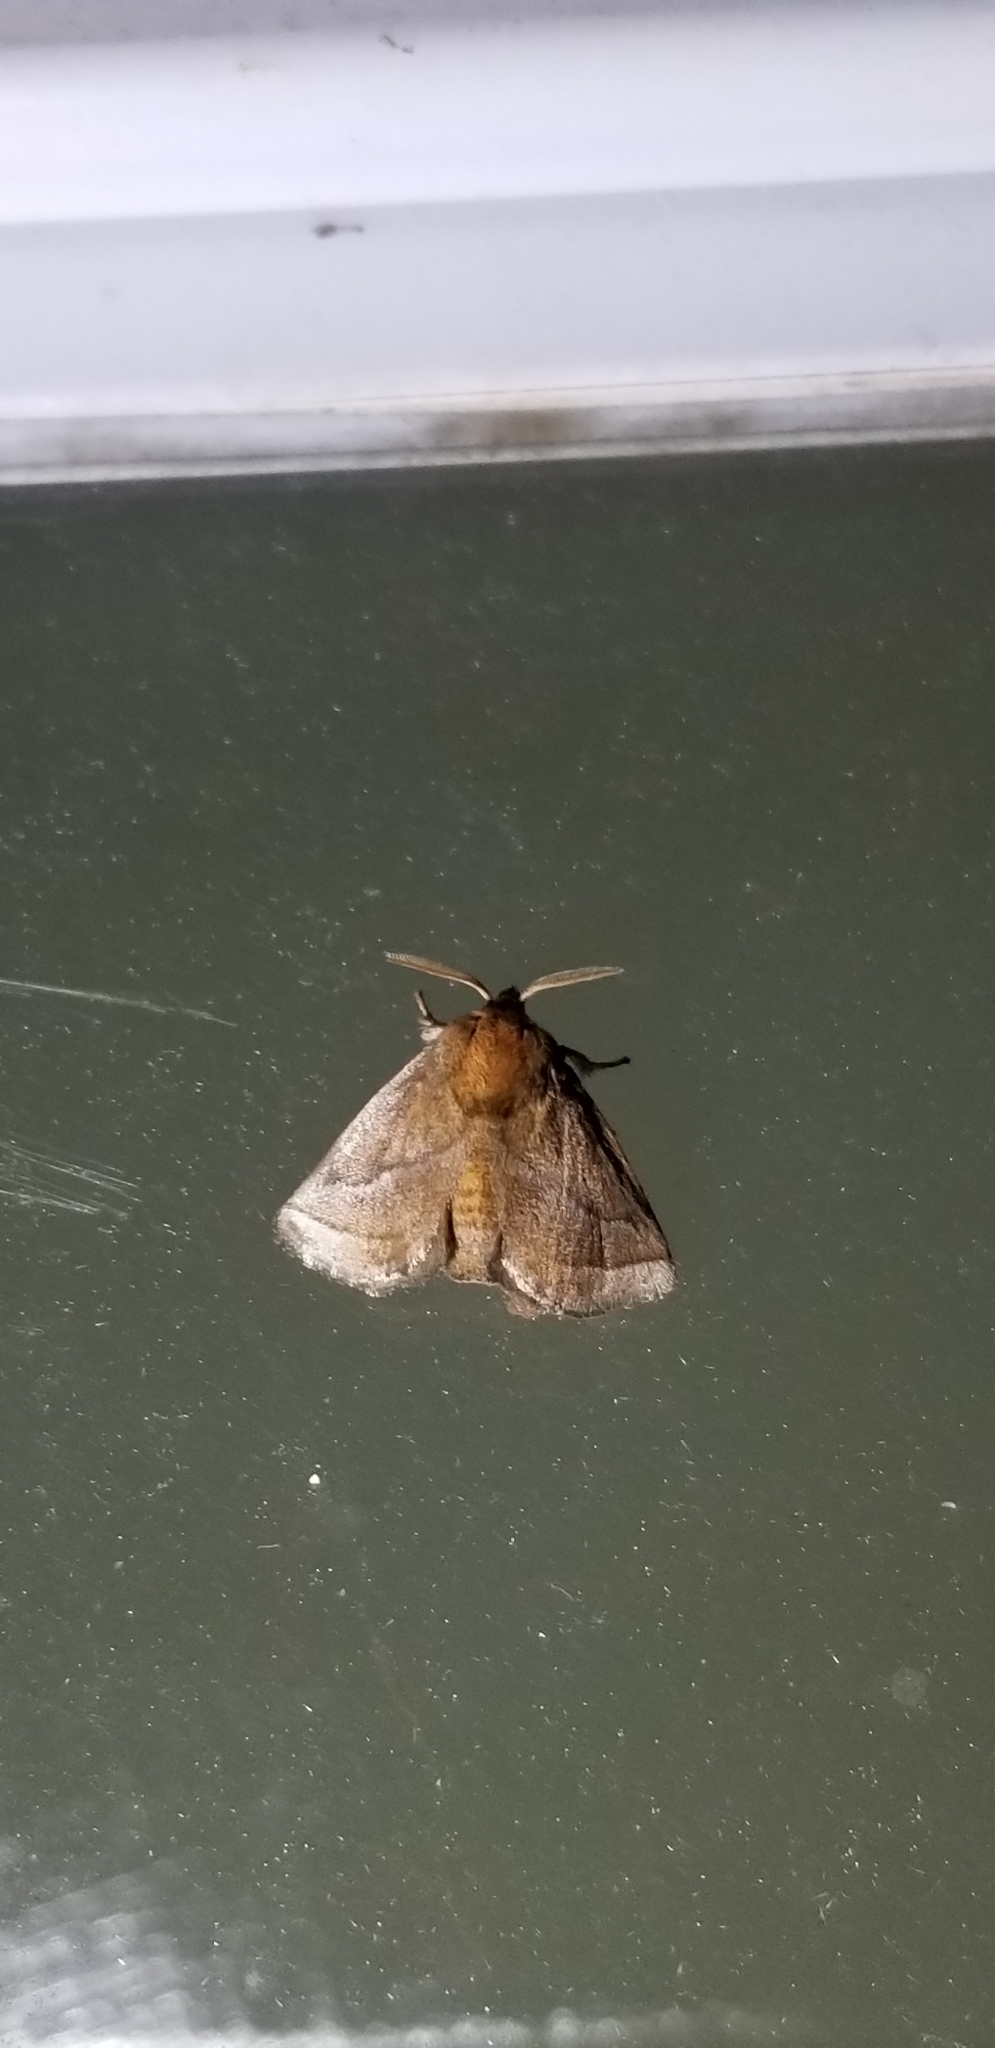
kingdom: Animalia
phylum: Arthropoda
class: Insecta
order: Lepidoptera
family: Limacodidae
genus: Natada
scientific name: Natada nasoni
